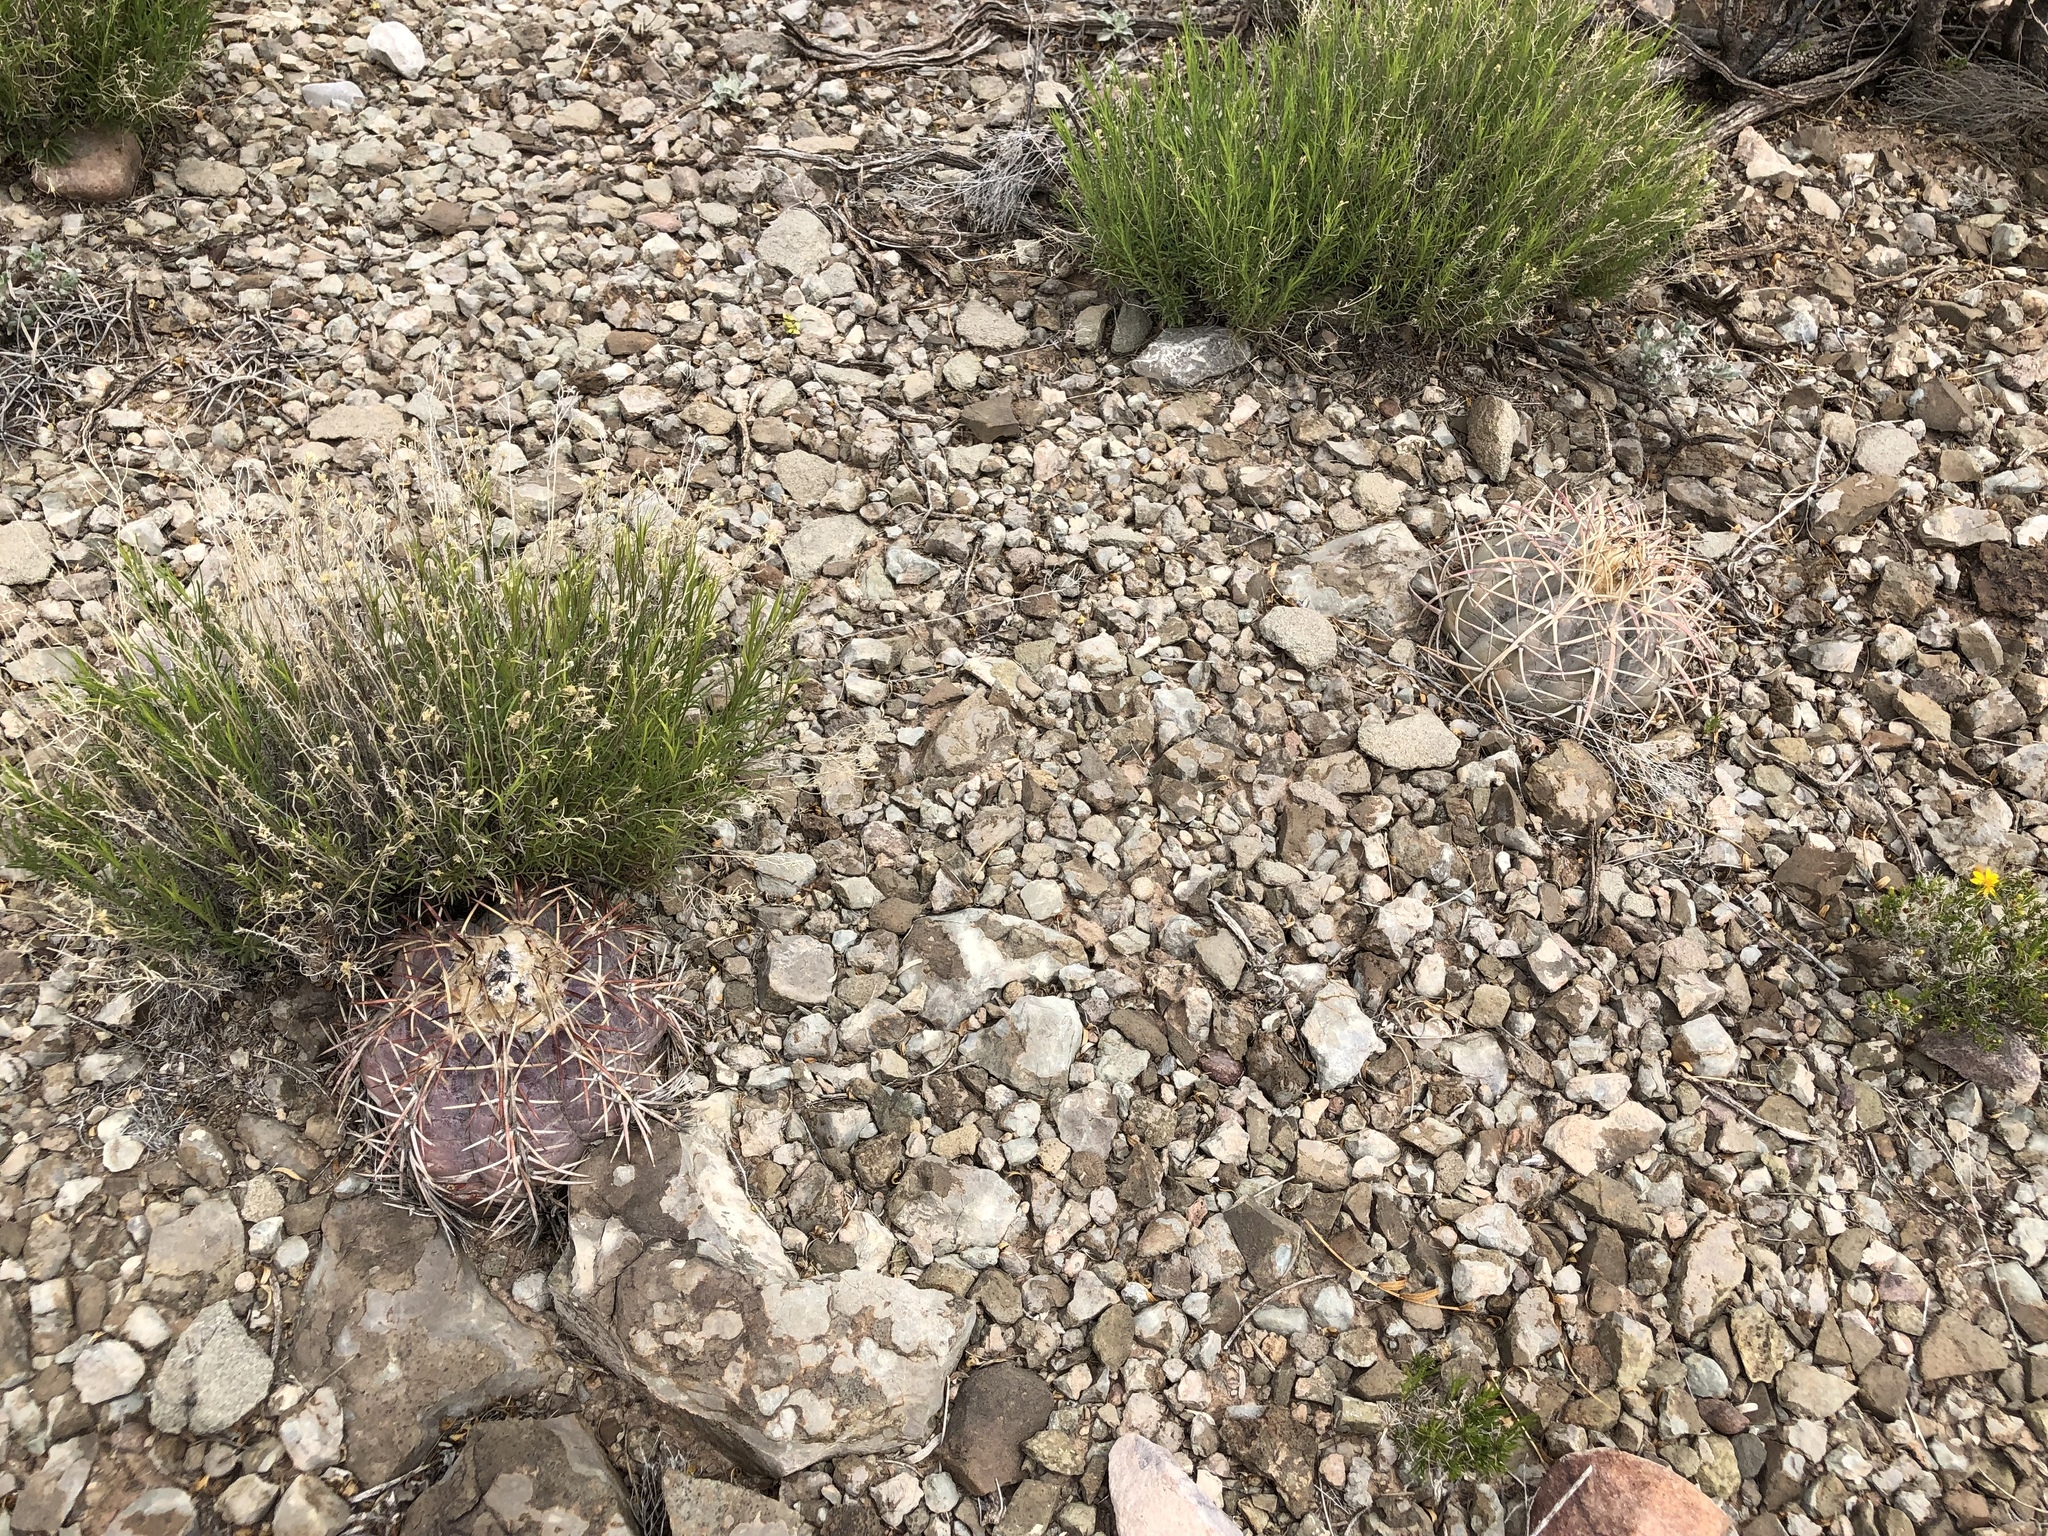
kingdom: Plantae
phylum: Tracheophyta
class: Magnoliopsida
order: Caryophyllales
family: Cactaceae
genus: Echinocactus
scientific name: Echinocactus horizonthalonius
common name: Devilshead
